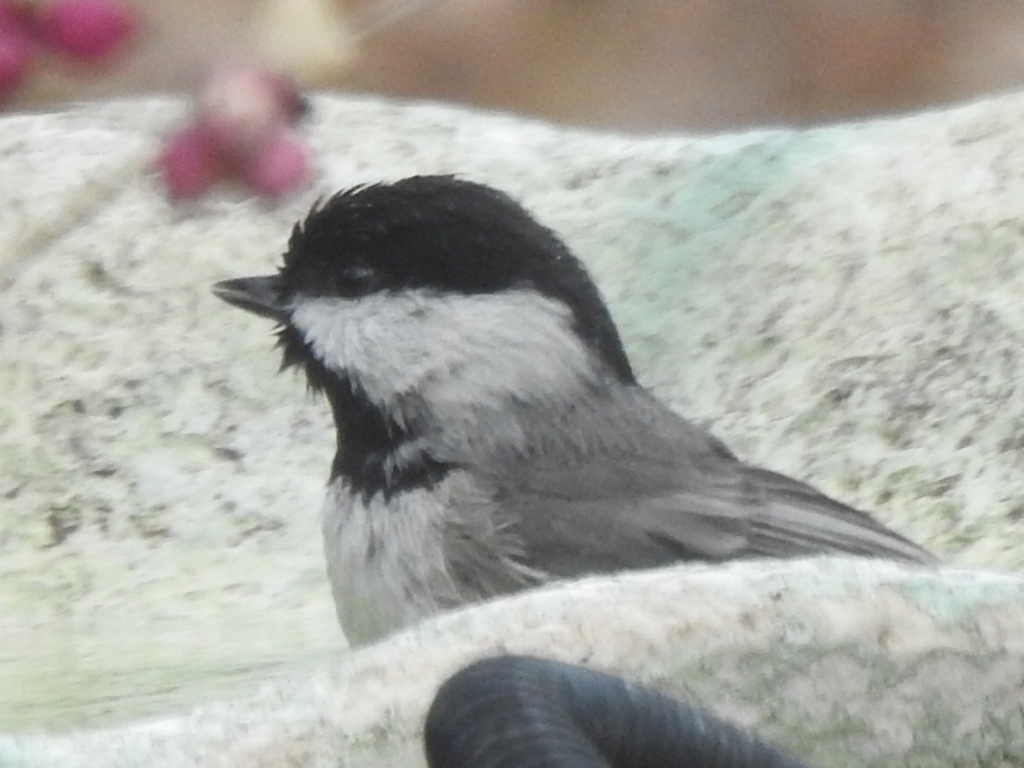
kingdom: Animalia
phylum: Chordata
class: Aves
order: Passeriformes
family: Paridae
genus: Poecile
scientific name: Poecile carolinensis
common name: Carolina chickadee
